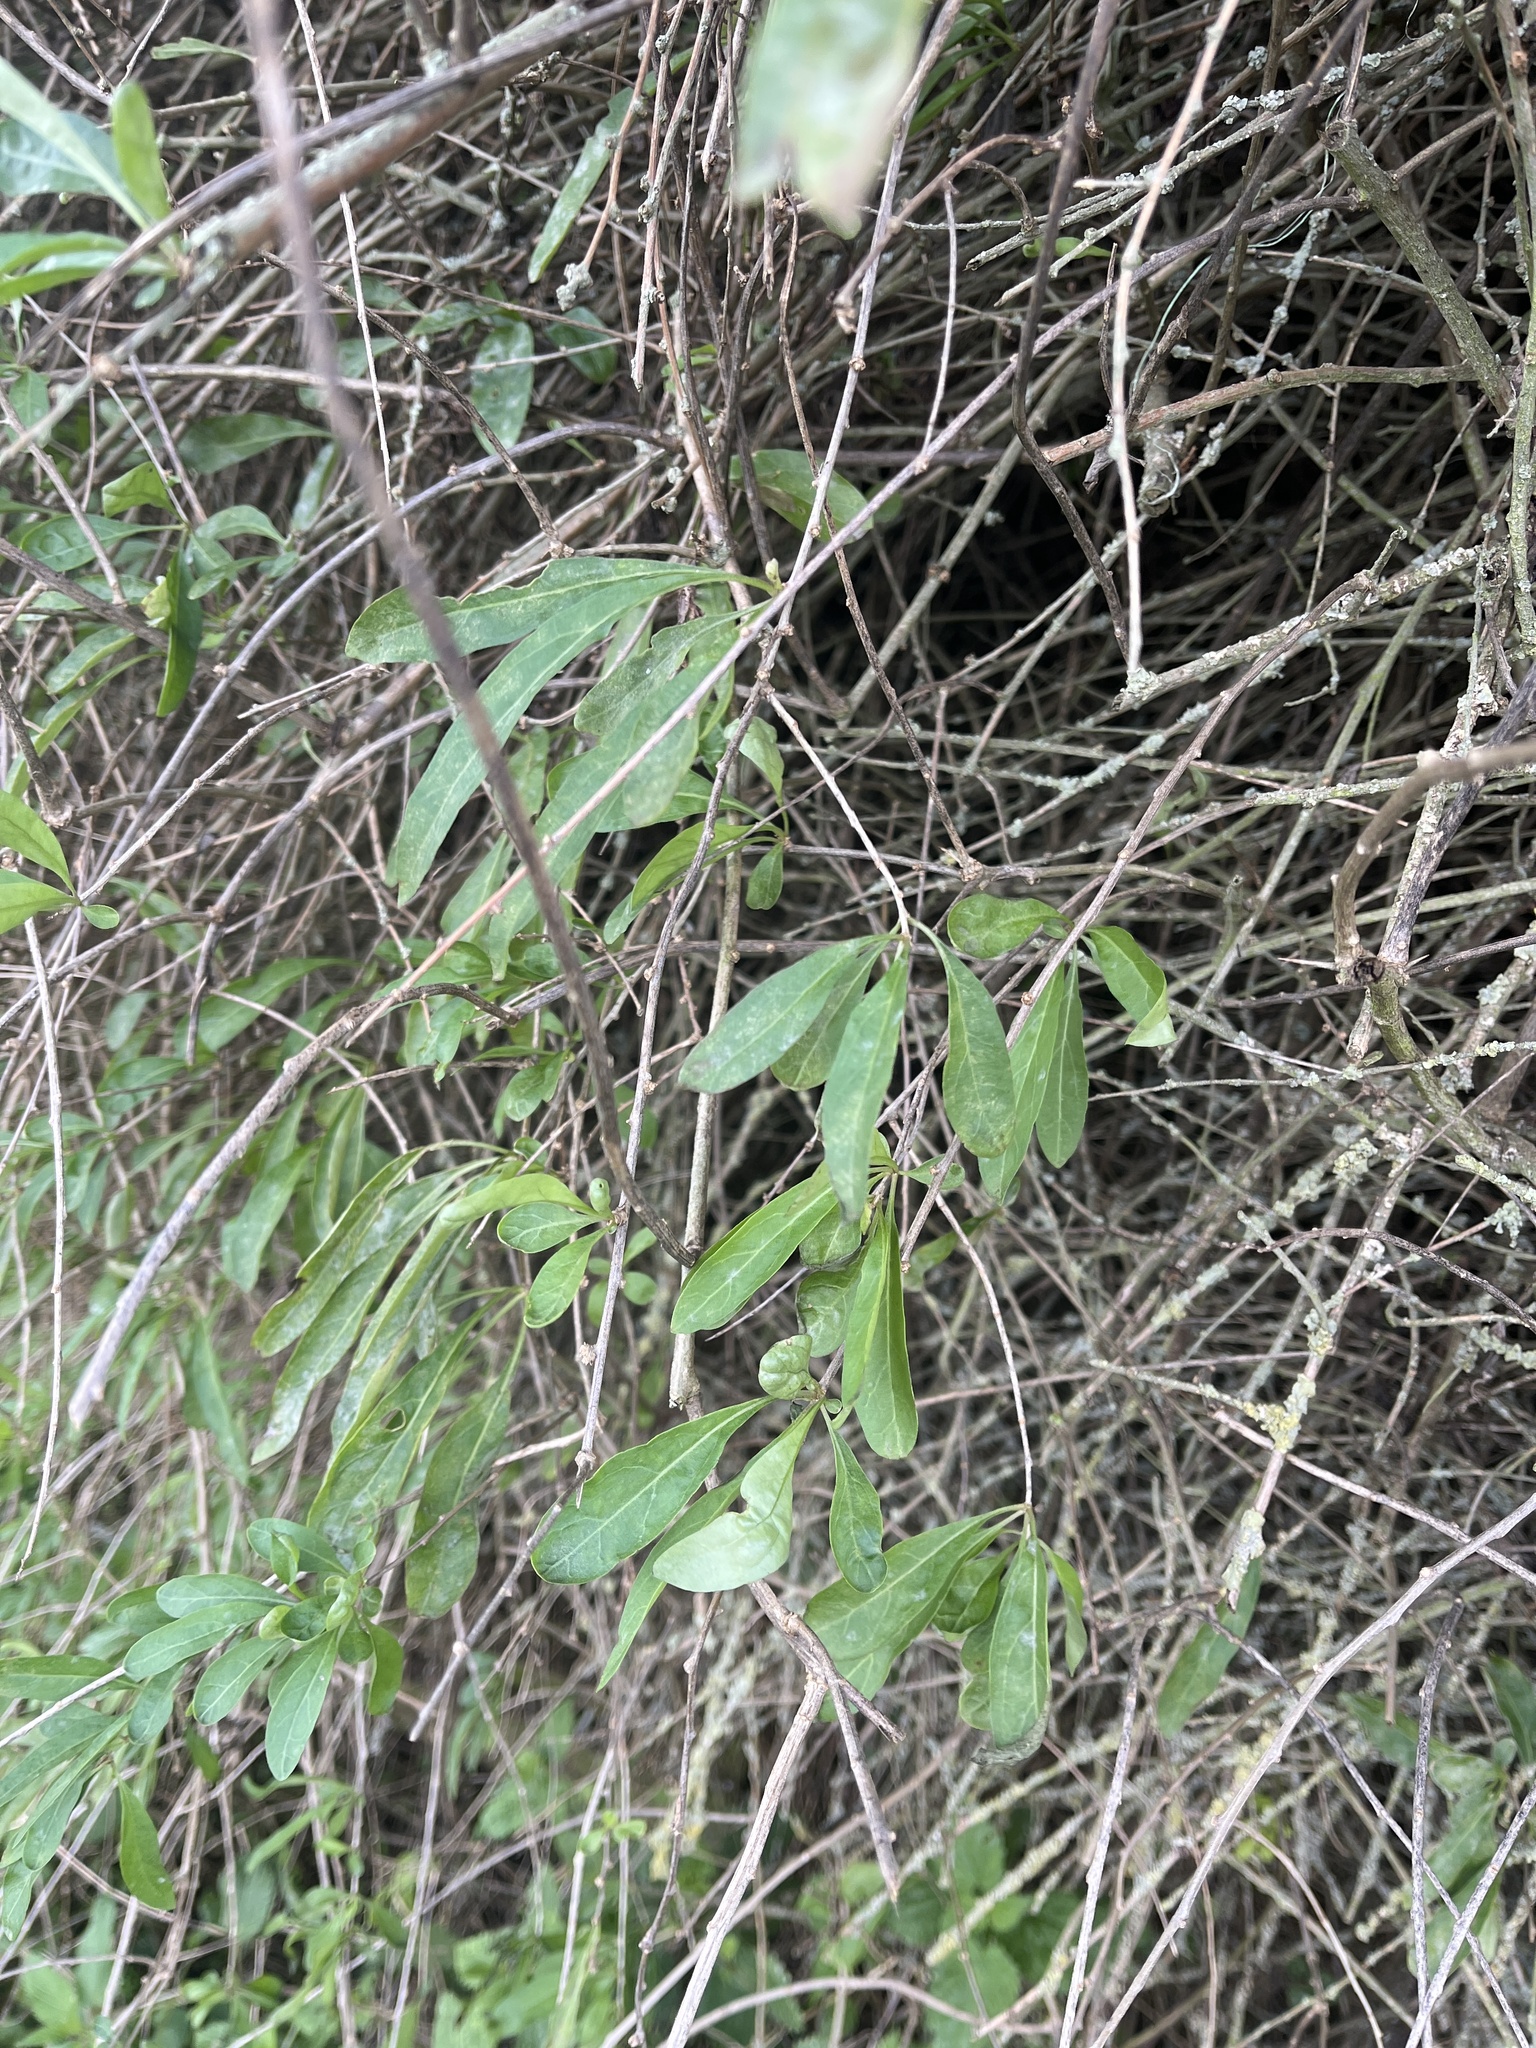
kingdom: Plantae
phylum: Tracheophyta
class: Magnoliopsida
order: Solanales
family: Solanaceae
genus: Lycium
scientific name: Lycium barbarum
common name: Duke of argyll's teaplant
